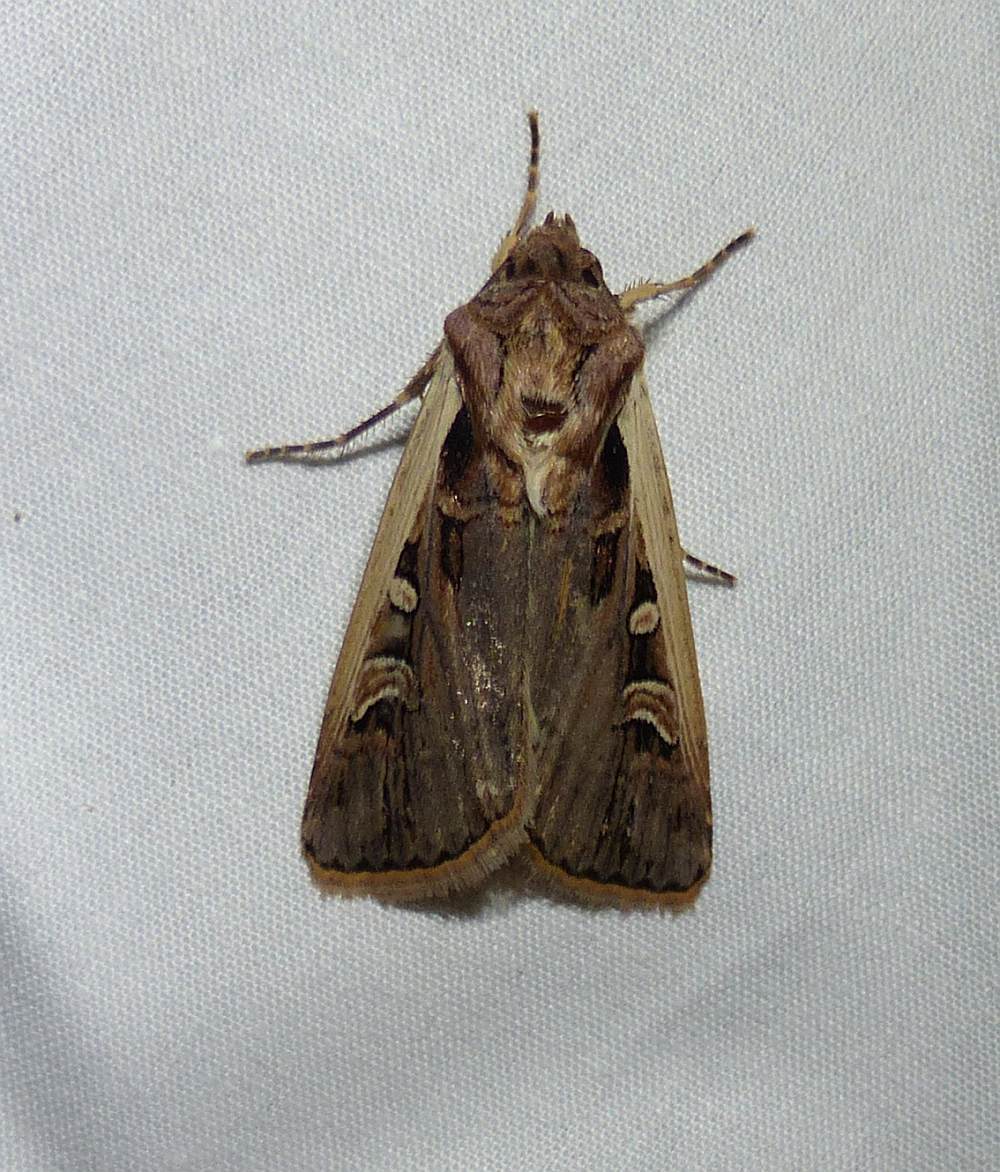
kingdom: Animalia
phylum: Arthropoda
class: Insecta
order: Lepidoptera
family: Noctuidae
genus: Striacosta
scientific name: Striacosta albicosta
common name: Western bean cutworm moth
